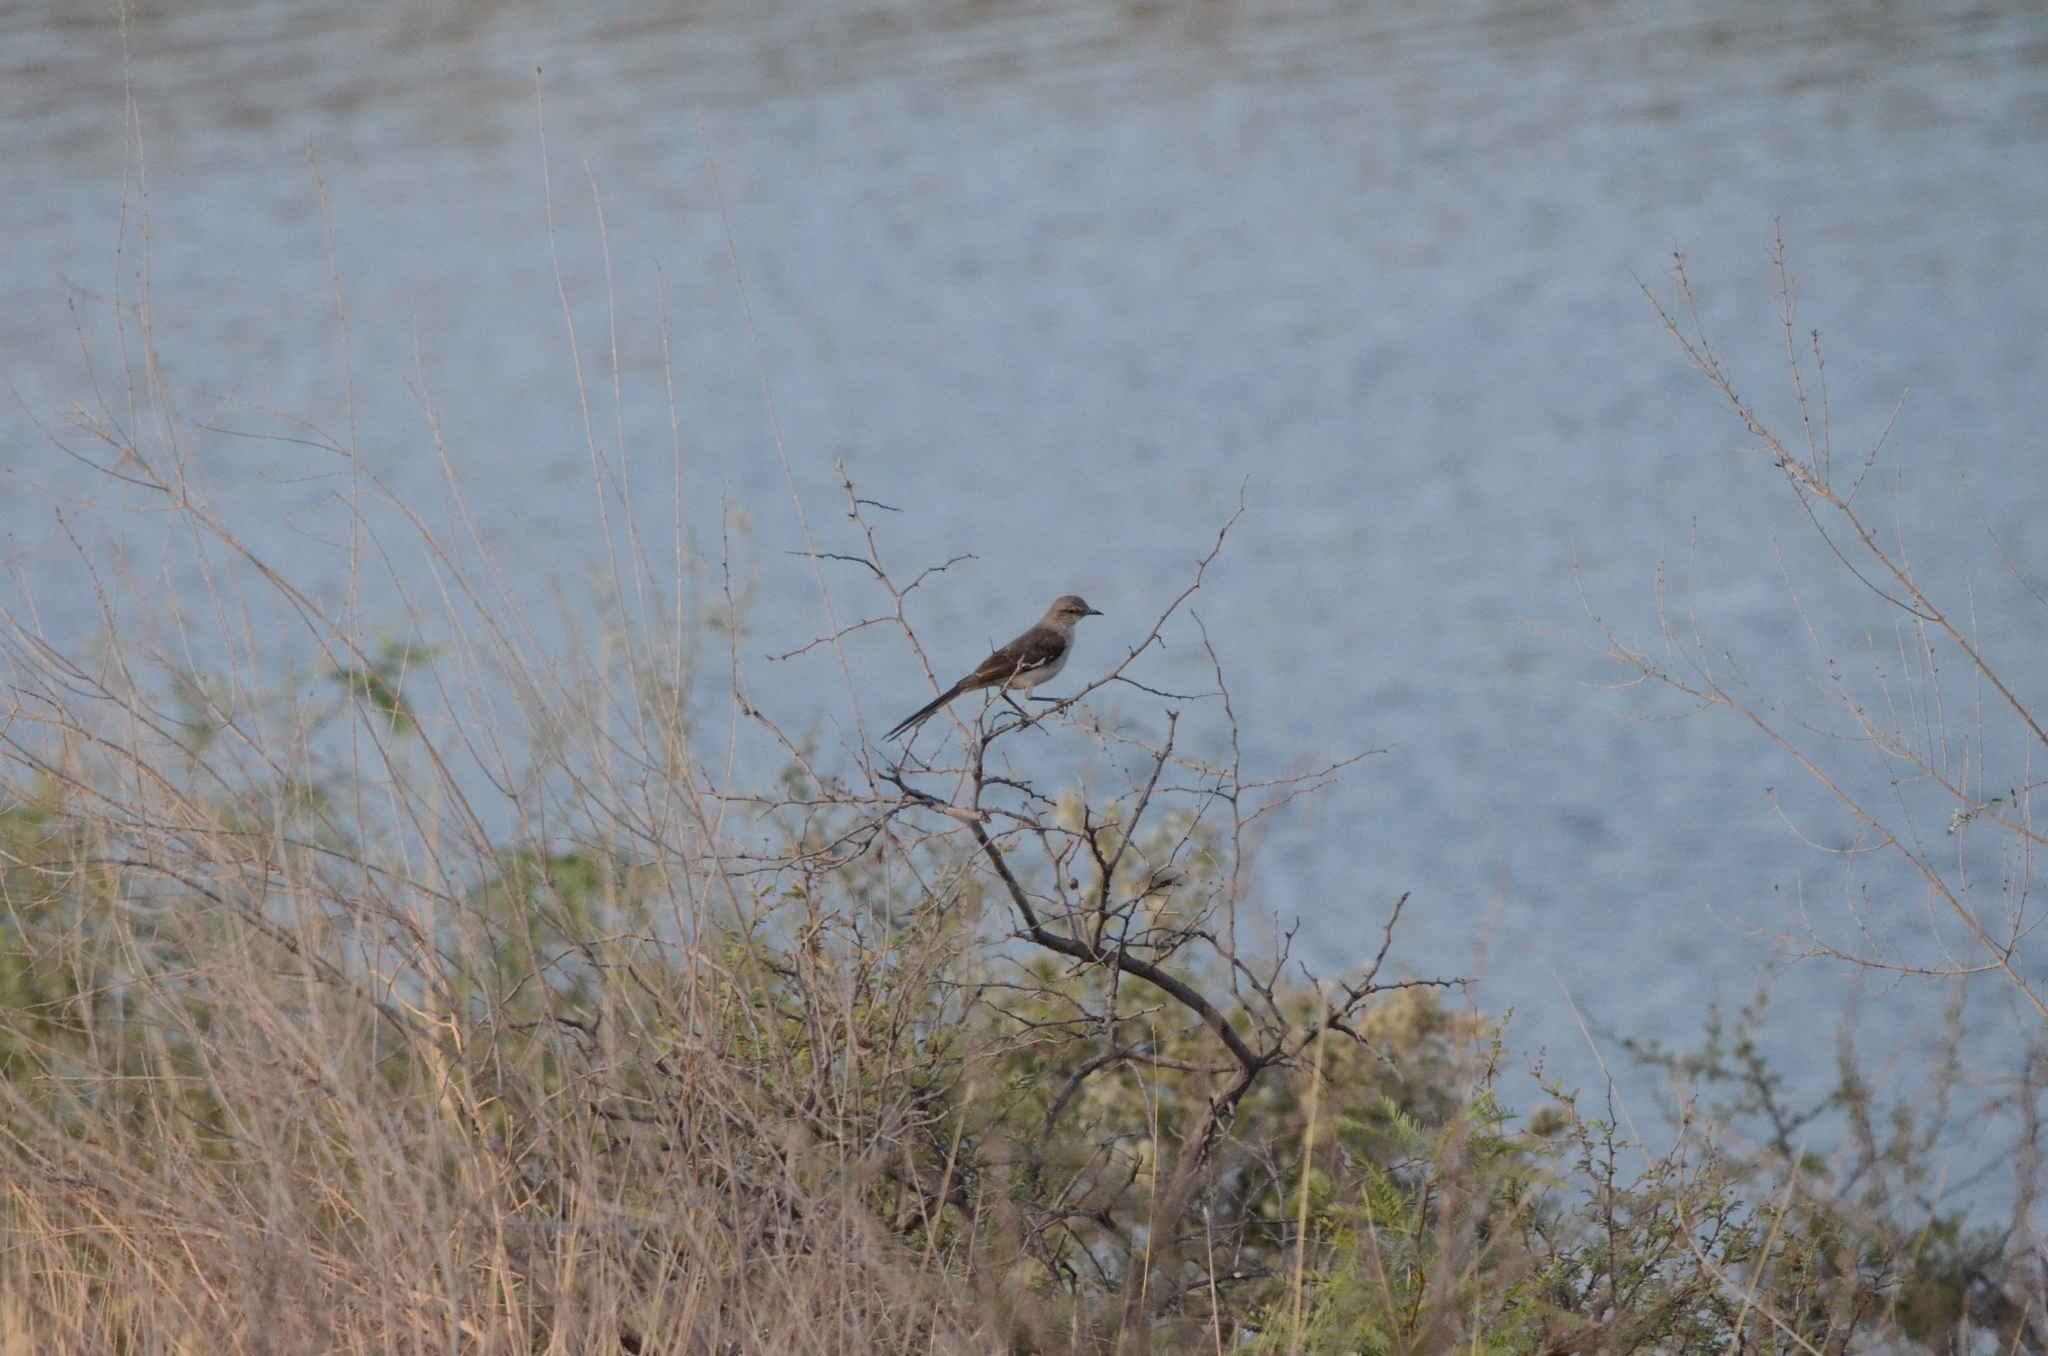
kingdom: Animalia
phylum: Chordata
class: Aves
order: Passeriformes
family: Mimidae
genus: Mimus
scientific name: Mimus polyglottos
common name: Northern mockingbird
